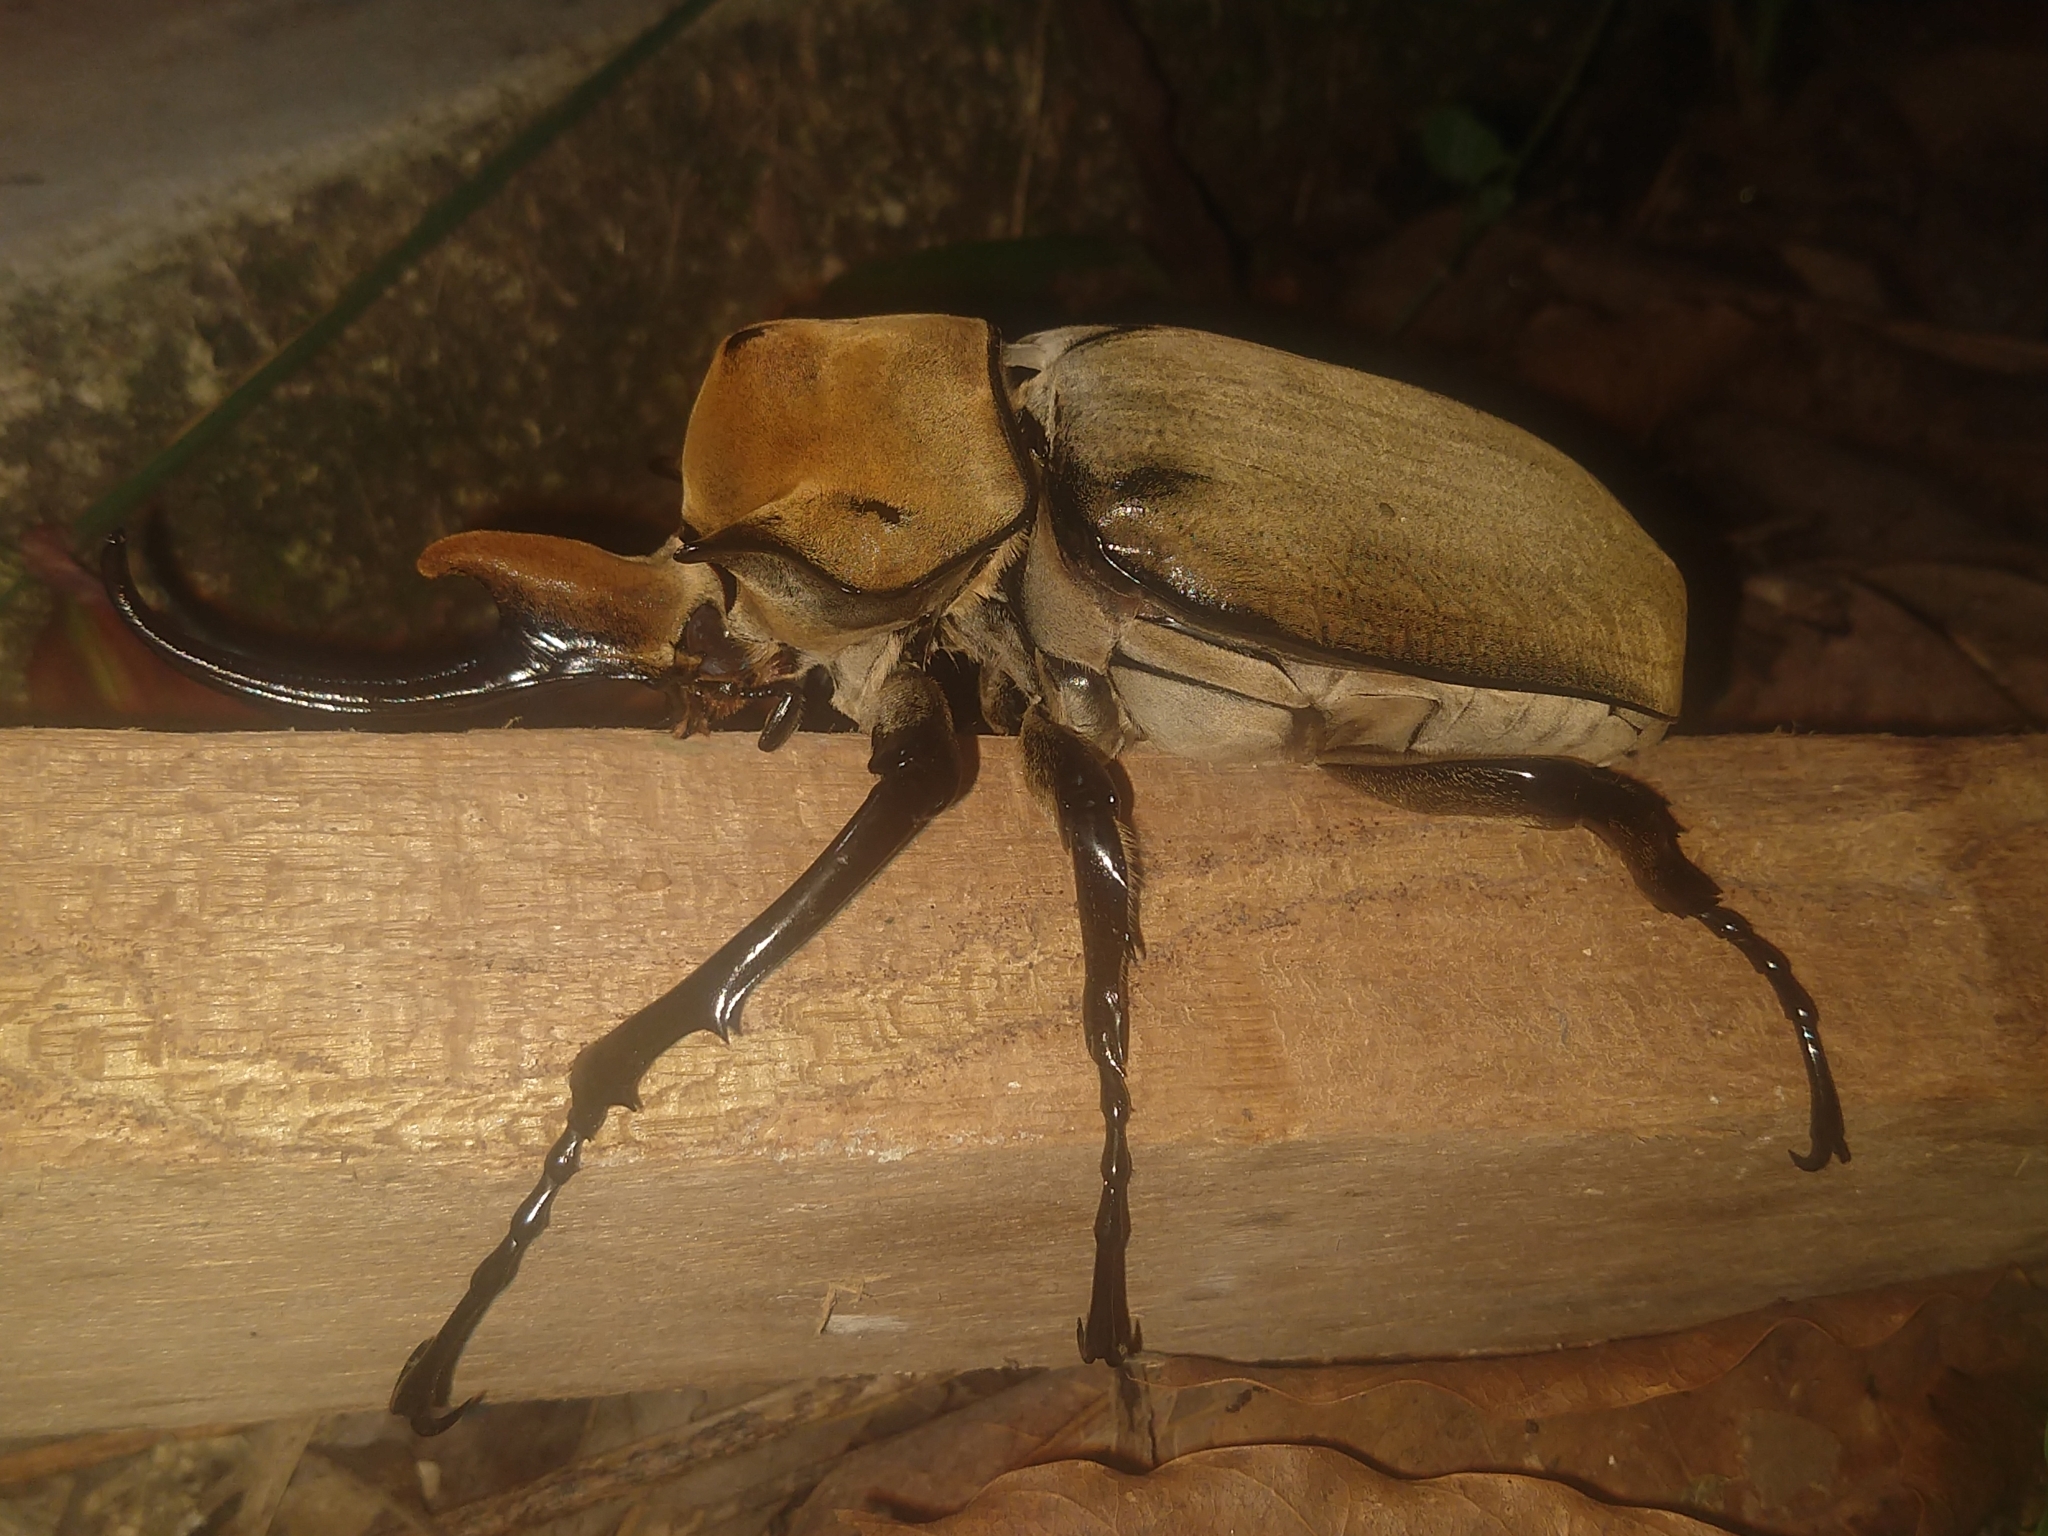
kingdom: Animalia
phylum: Arthropoda
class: Insecta
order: Coleoptera
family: Scarabaeidae
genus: Megasoma
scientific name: Megasoma elephas
